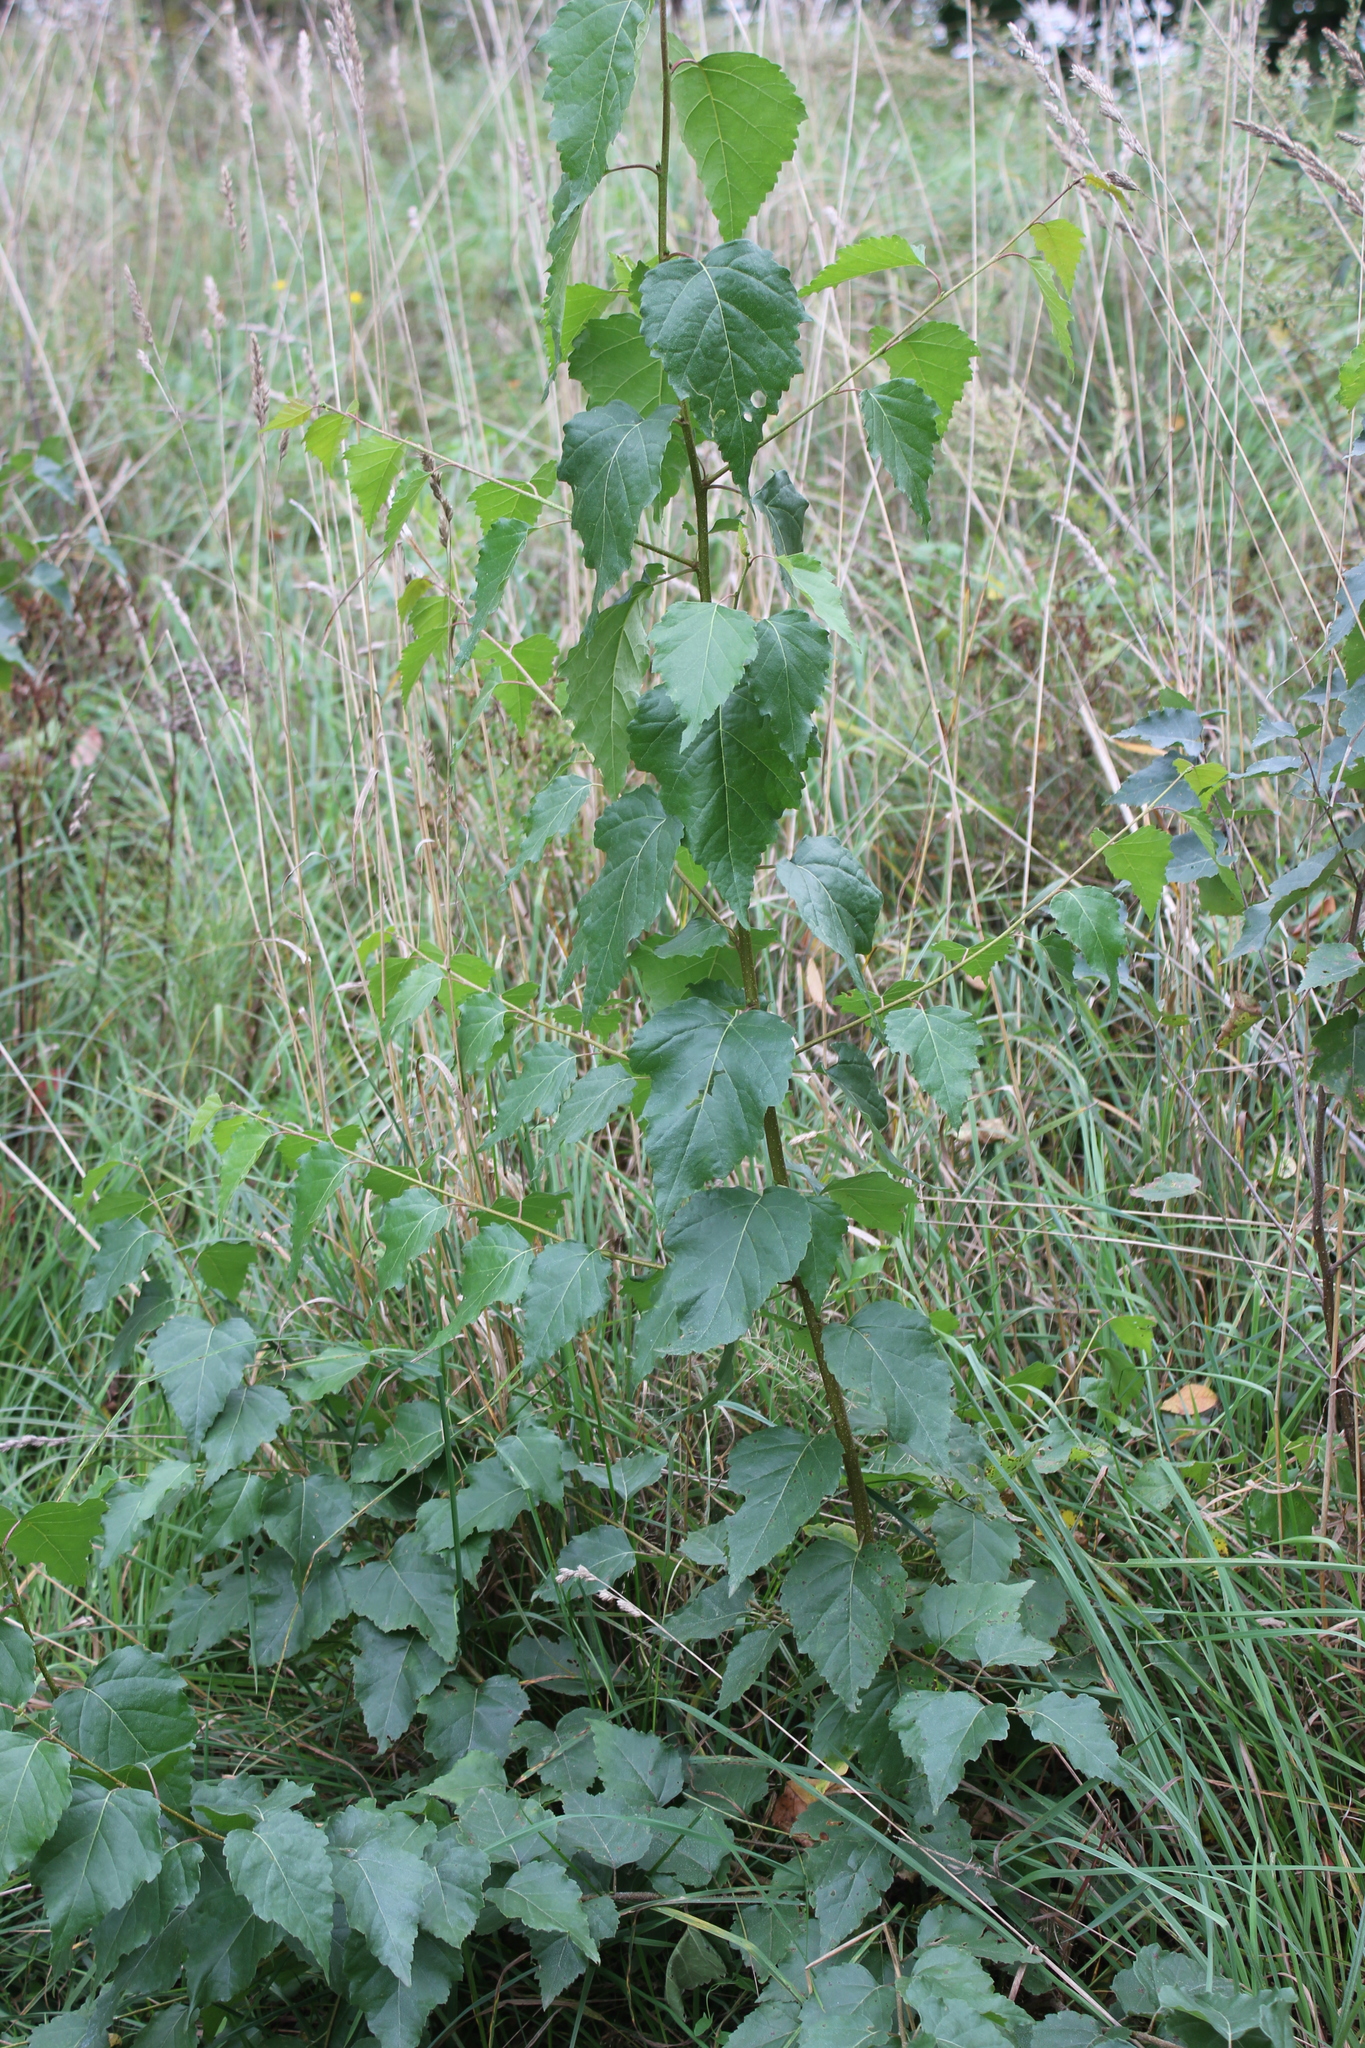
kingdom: Plantae
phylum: Tracheophyta
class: Magnoliopsida
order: Fagales
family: Betulaceae
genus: Betula
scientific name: Betula pendula
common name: Silver birch
